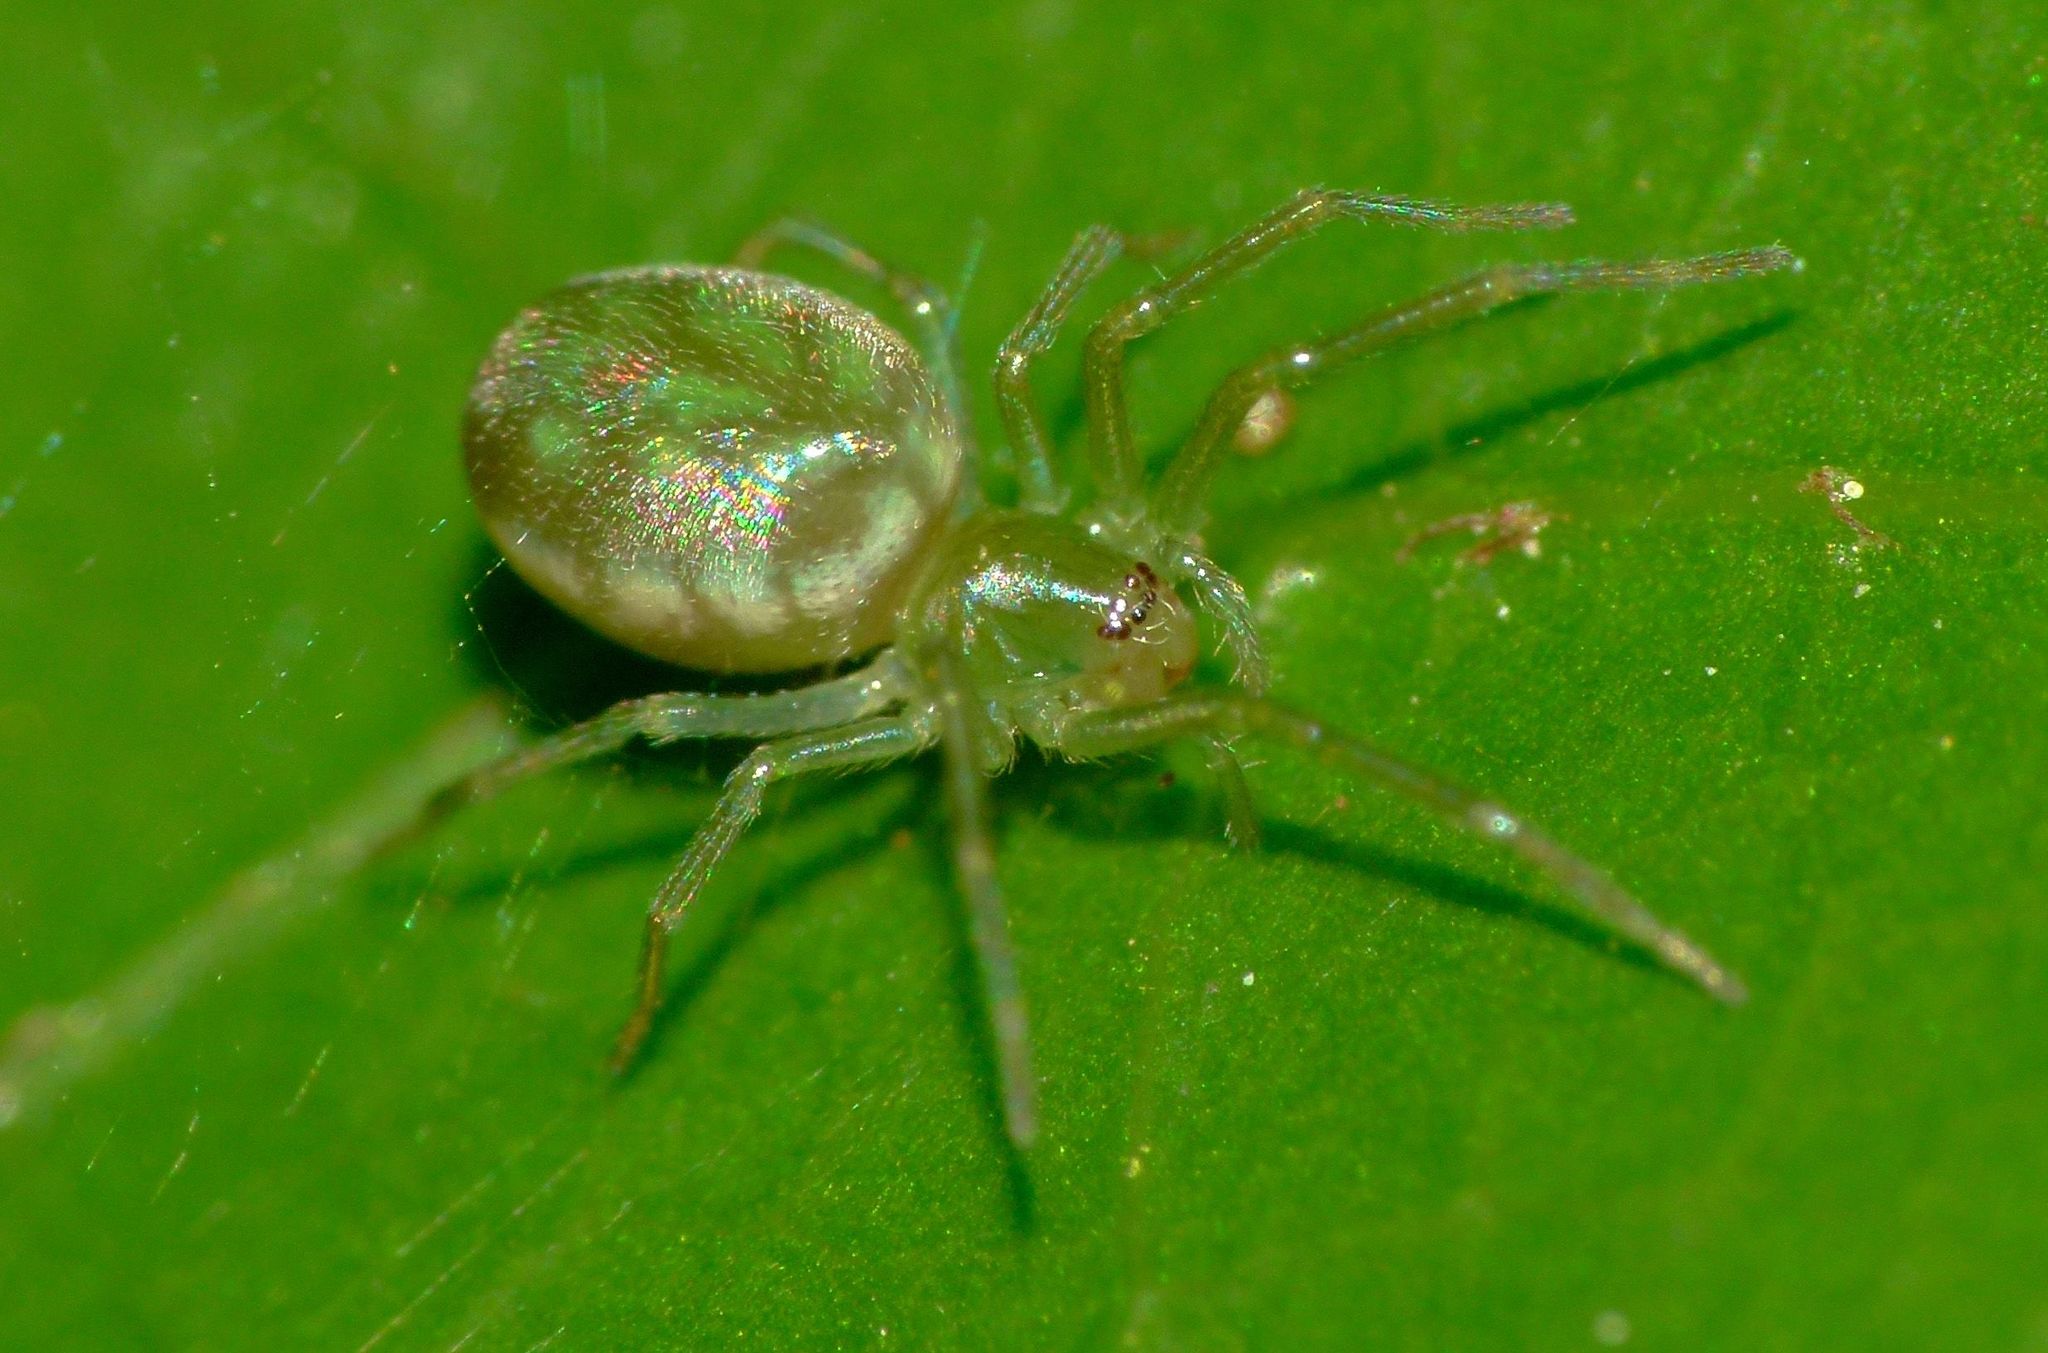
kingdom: Animalia
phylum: Arthropoda
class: Arachnida
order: Araneae
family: Dictynidae
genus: Paradictyna
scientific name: Paradictyna ilamia
